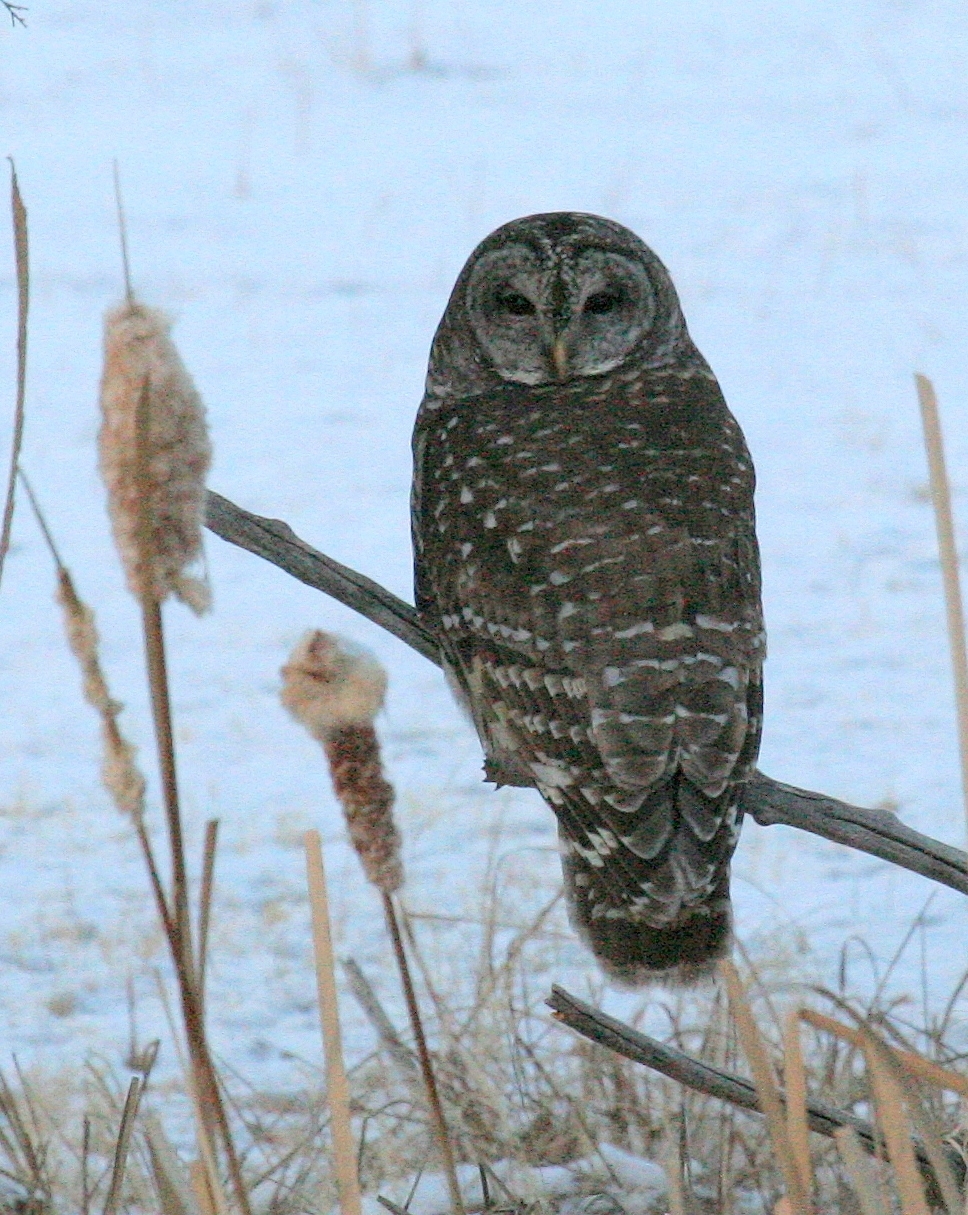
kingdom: Animalia
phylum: Chordata
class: Aves
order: Strigiformes
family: Strigidae
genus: Strix
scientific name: Strix varia
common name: Barred owl
